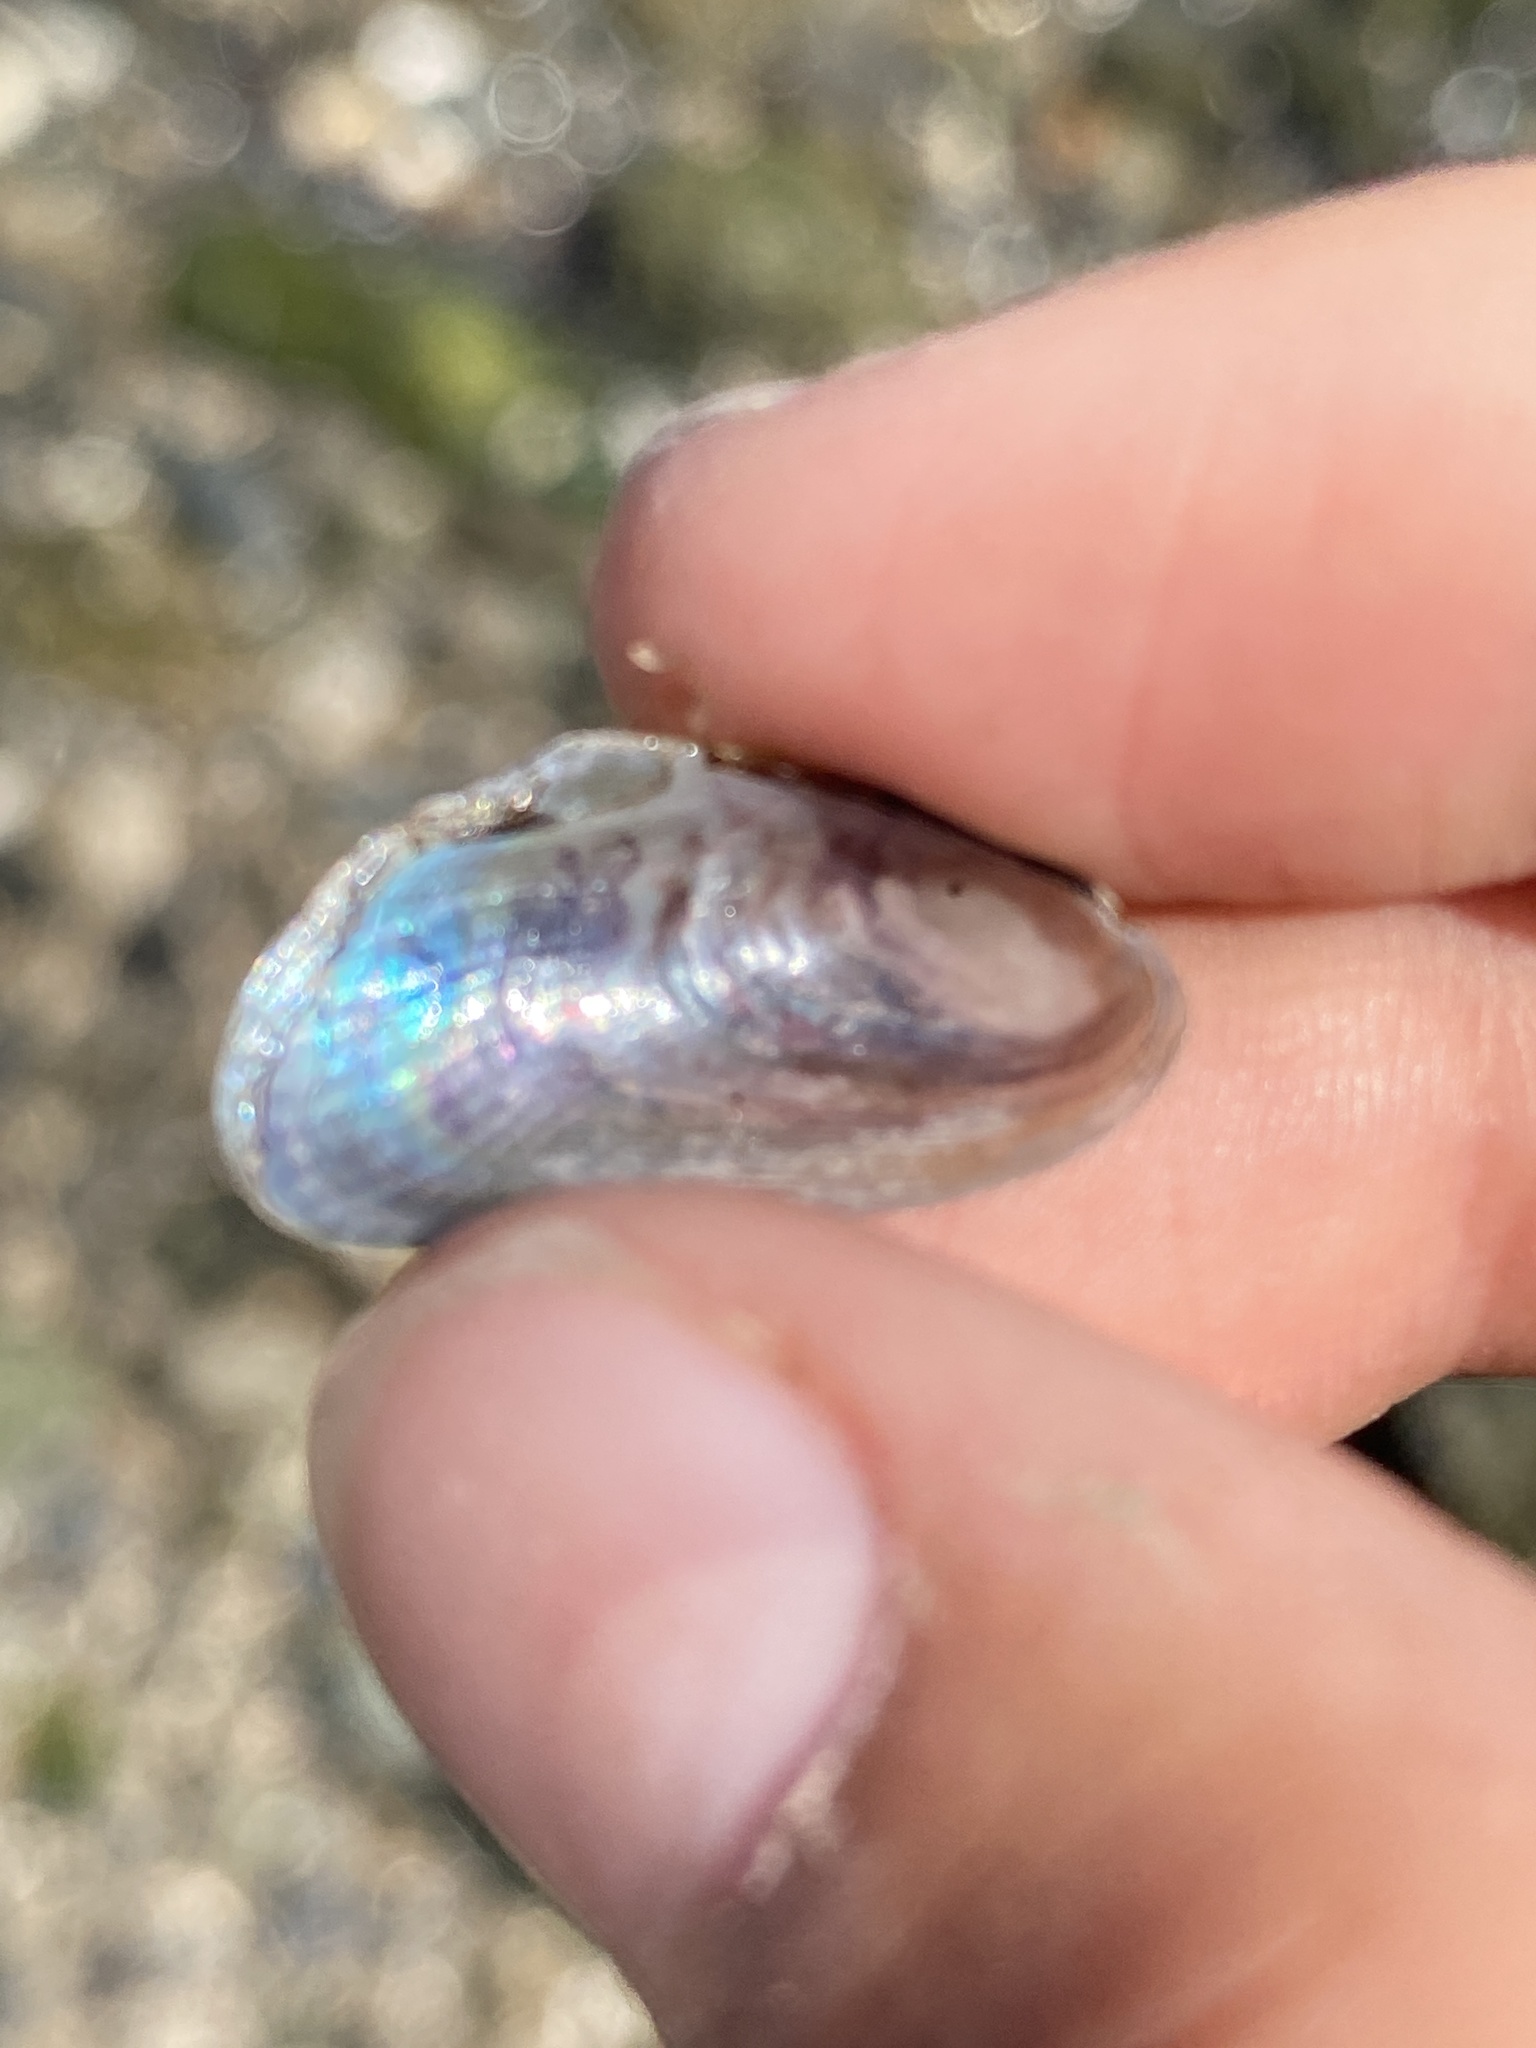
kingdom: Animalia
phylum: Mollusca
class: Bivalvia
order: Mytilida
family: Mytilidae
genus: Arcuatula
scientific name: Arcuatula senhousia
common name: Asian mussel
